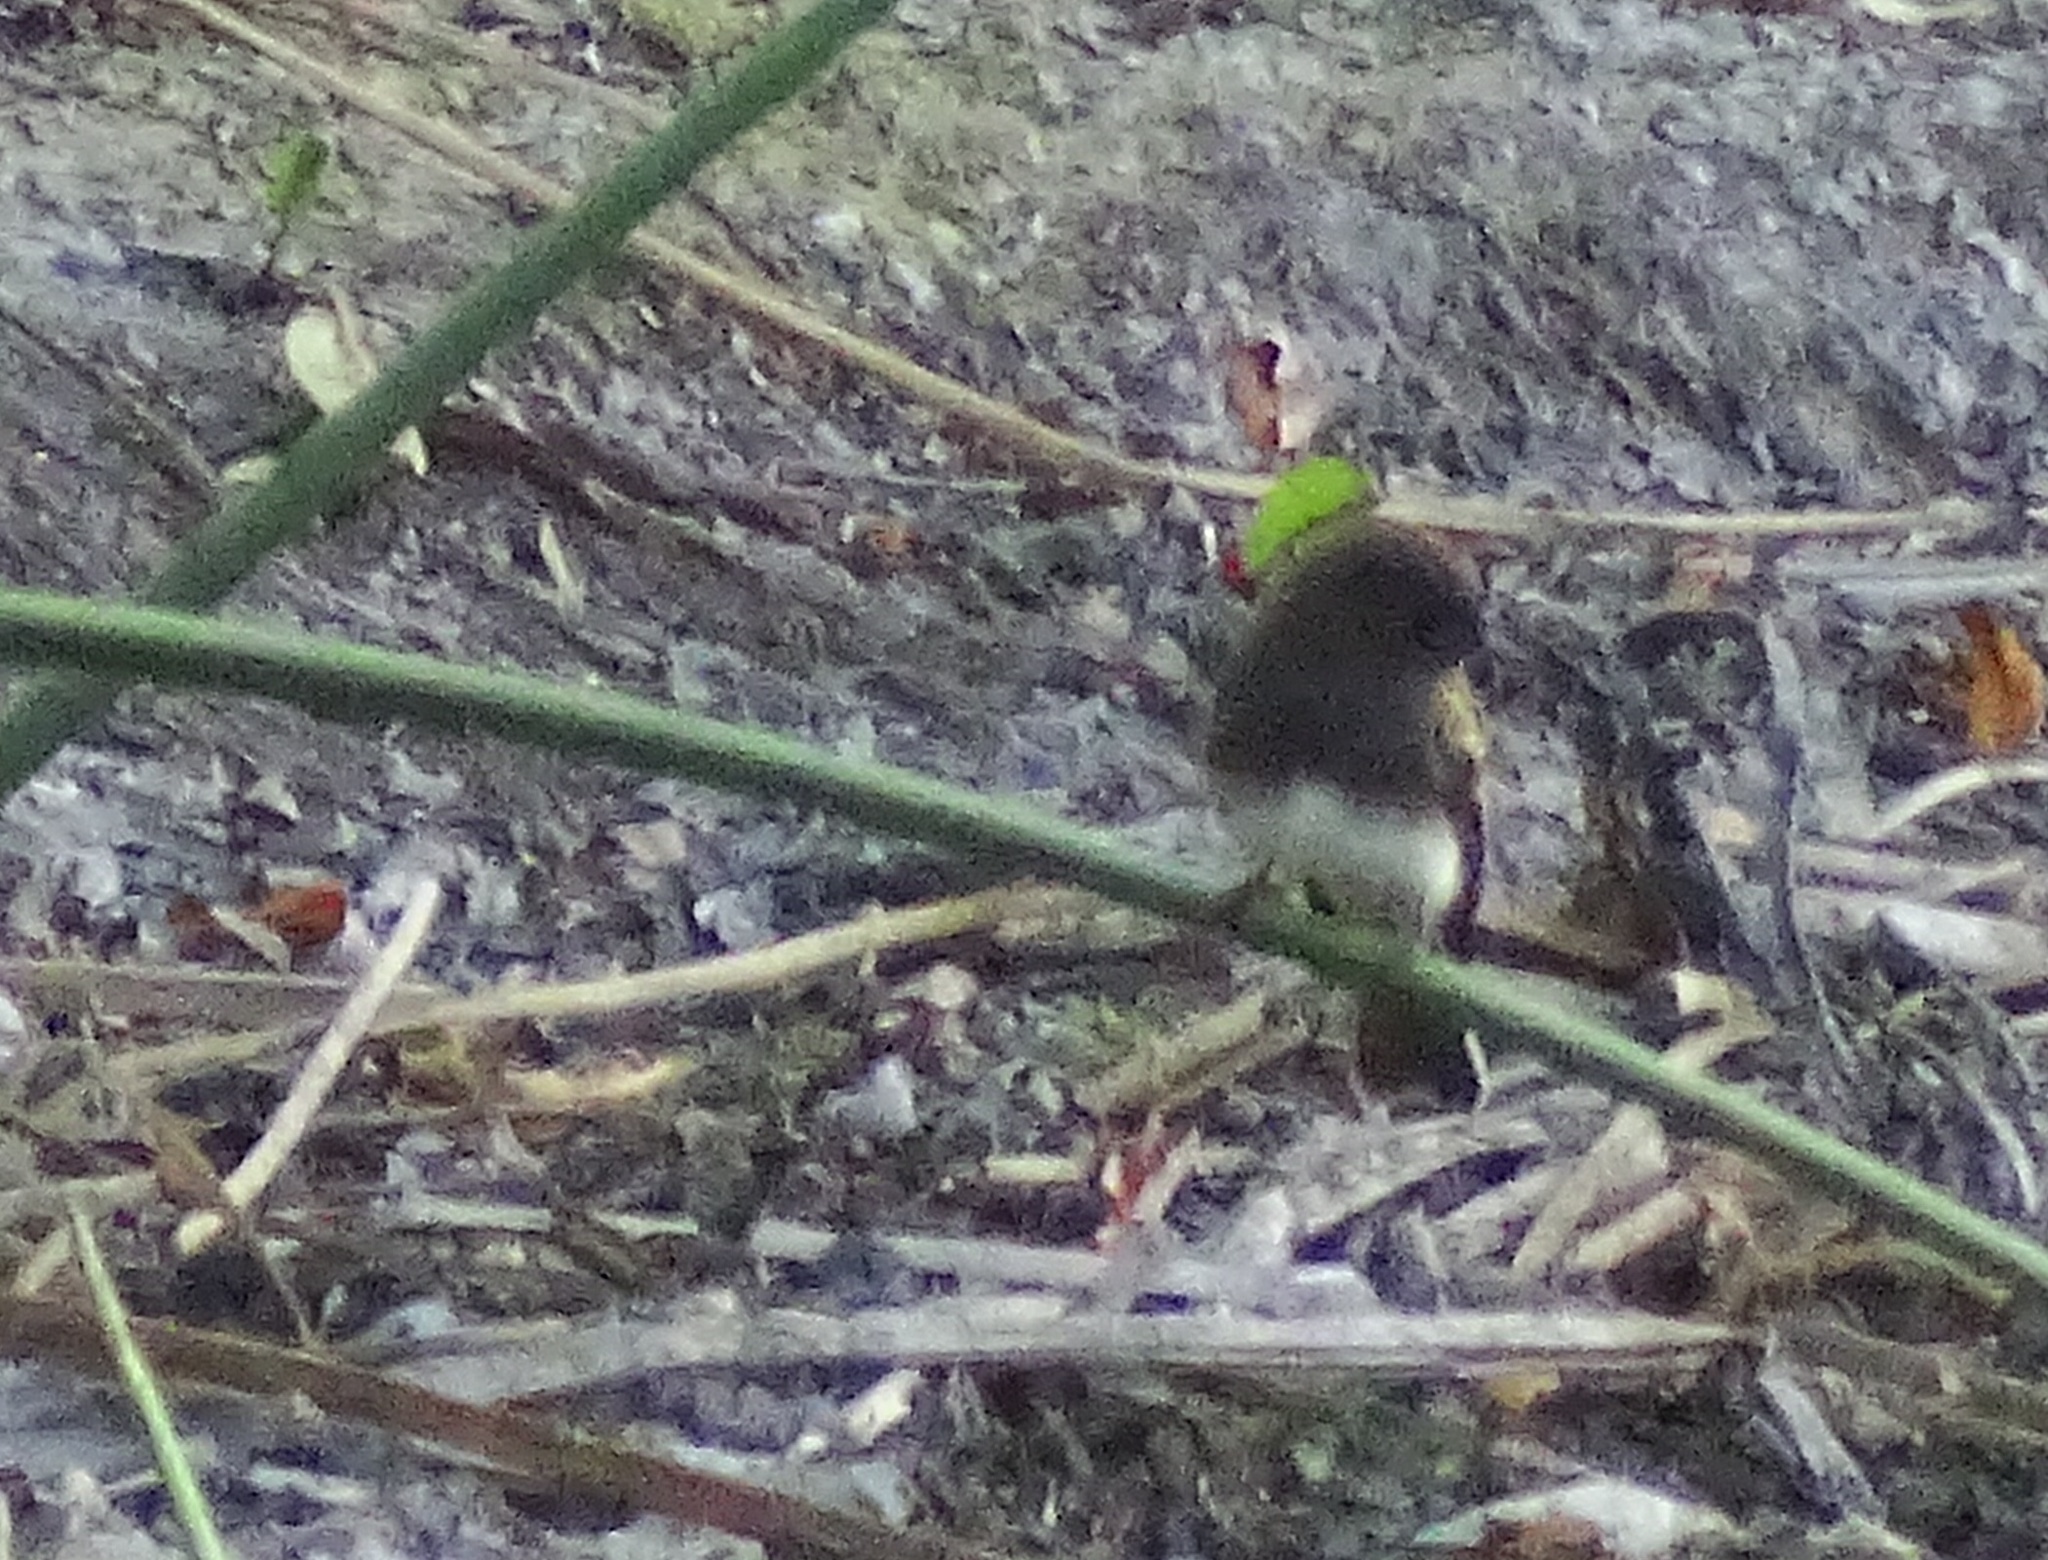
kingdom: Animalia
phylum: Chordata
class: Aves
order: Passeriformes
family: Tyrannidae
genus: Sayornis
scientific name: Sayornis nigricans
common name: Black phoebe
